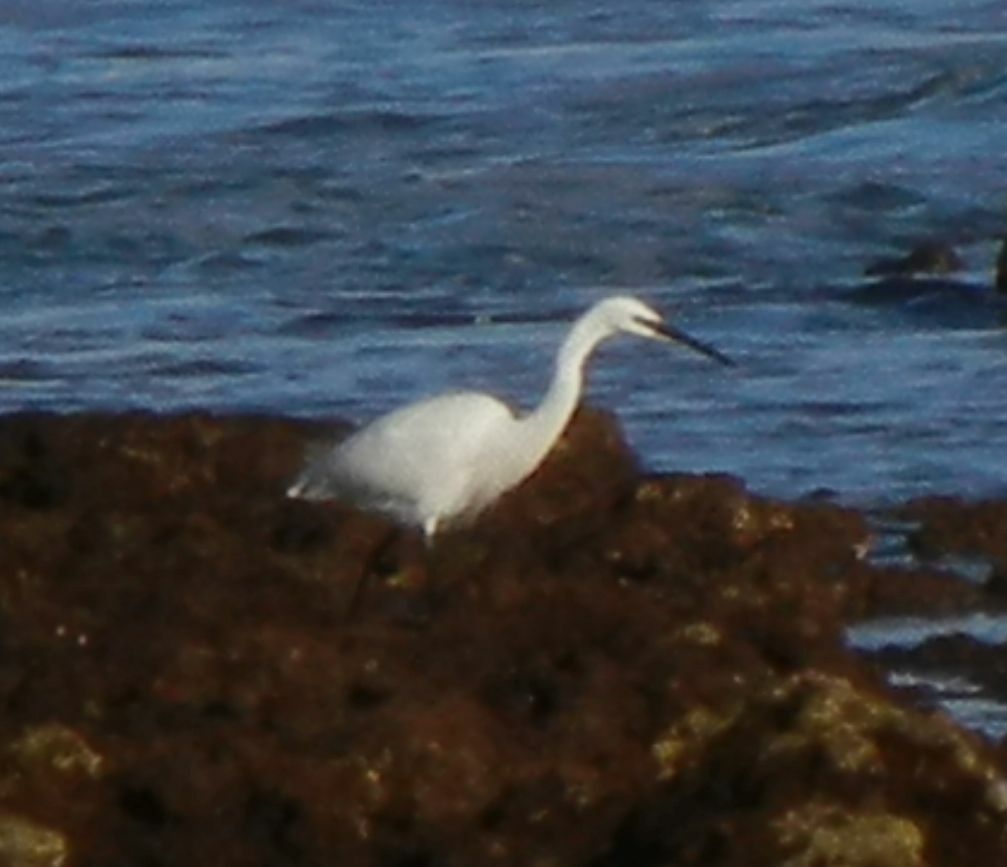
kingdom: Animalia
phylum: Chordata
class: Aves
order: Pelecaniformes
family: Ardeidae
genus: Egretta
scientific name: Egretta garzetta
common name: Little egret
